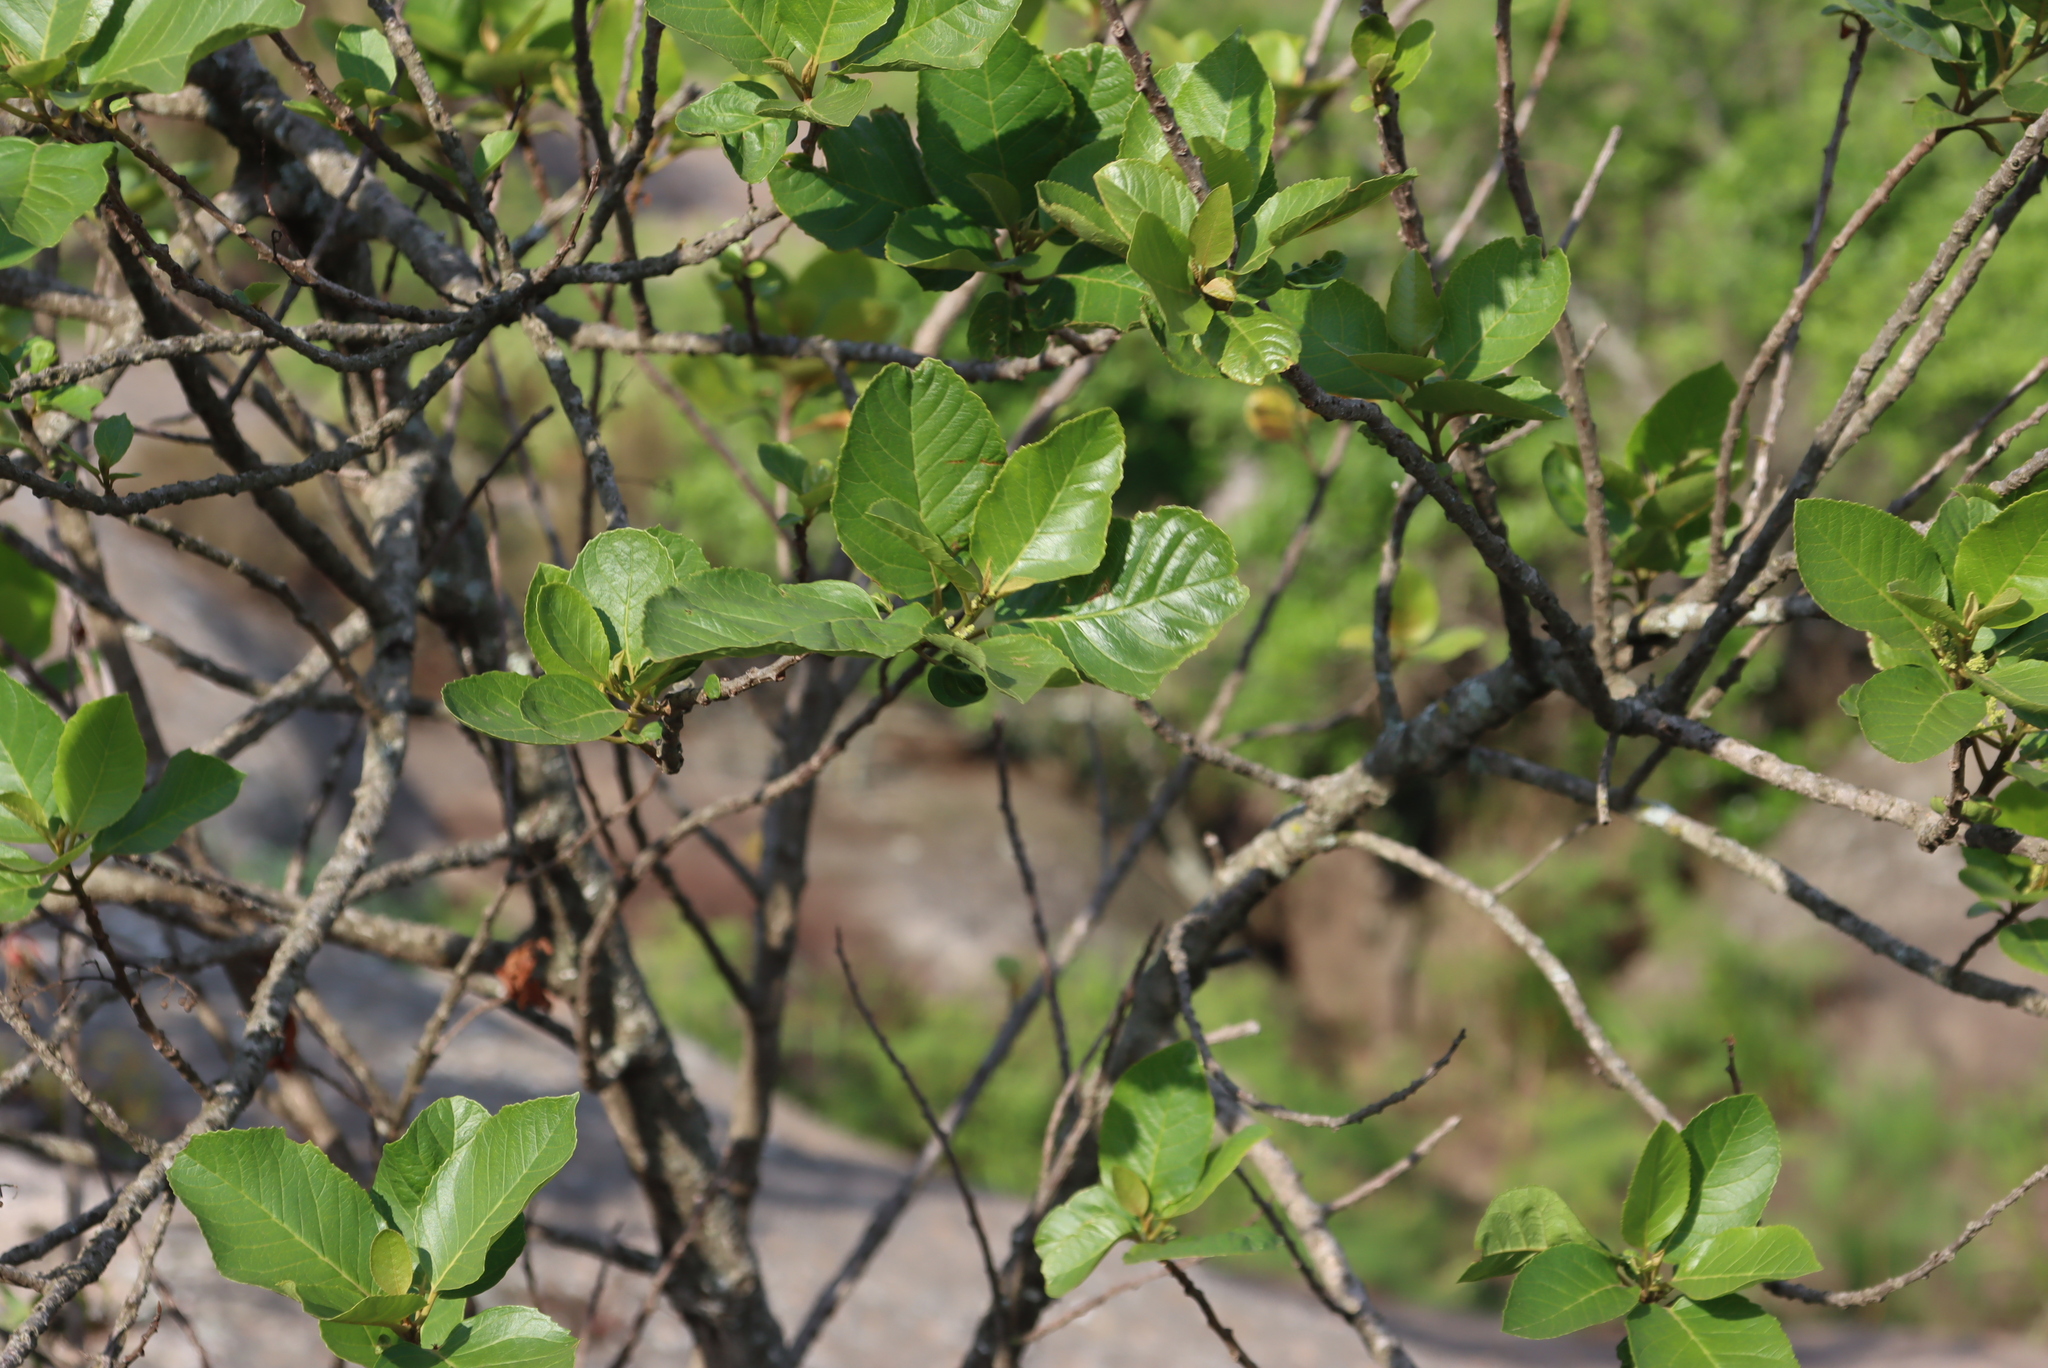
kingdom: Plantae
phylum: Tracheophyta
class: Magnoliopsida
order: Ericales
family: Primulaceae
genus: Maesa
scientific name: Maesa lanceolata
